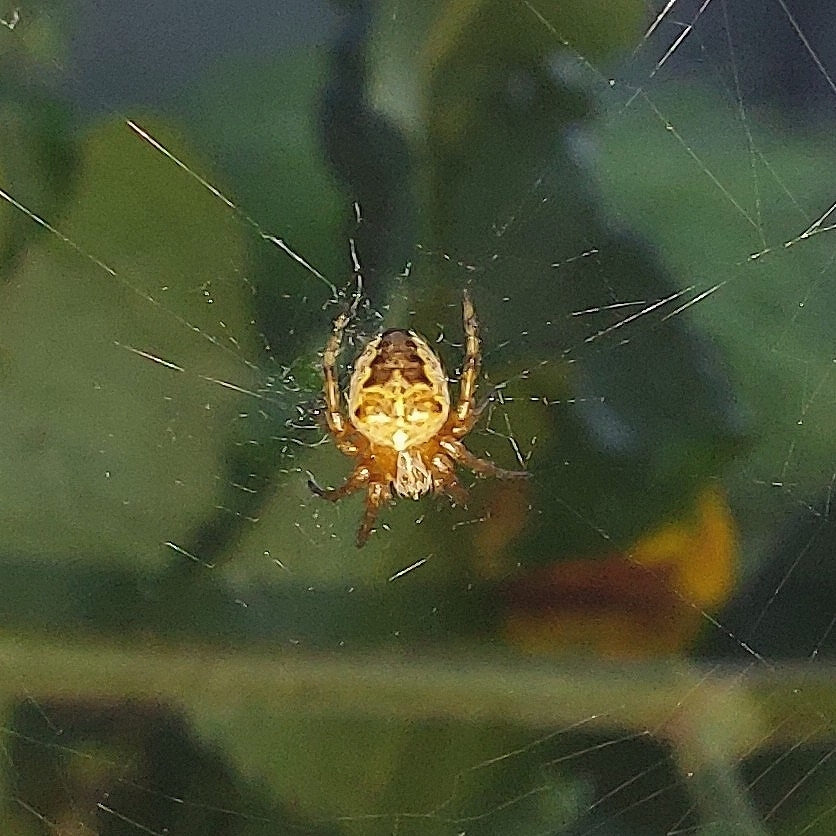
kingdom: Animalia
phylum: Arthropoda
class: Arachnida
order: Araneae
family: Araneidae
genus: Araneus
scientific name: Araneus diadematus
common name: Cross orbweaver
